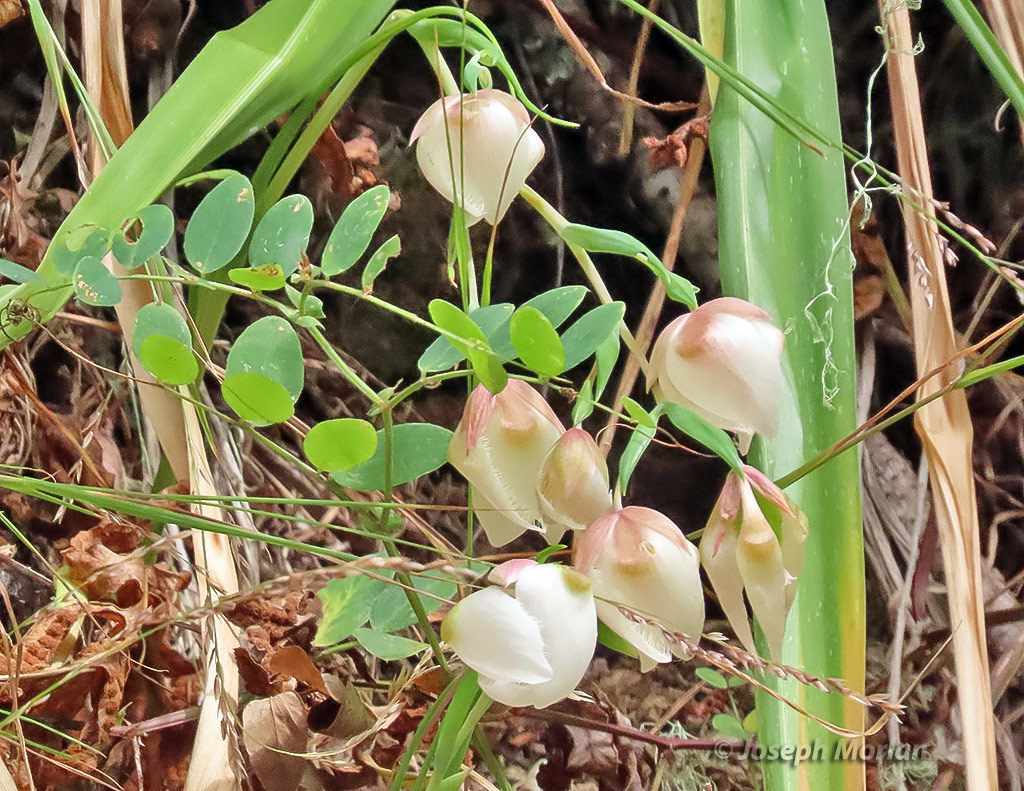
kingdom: Plantae
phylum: Tracheophyta
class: Liliopsida
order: Liliales
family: Liliaceae
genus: Calochortus
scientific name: Calochortus albus
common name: Fairy-lantern
